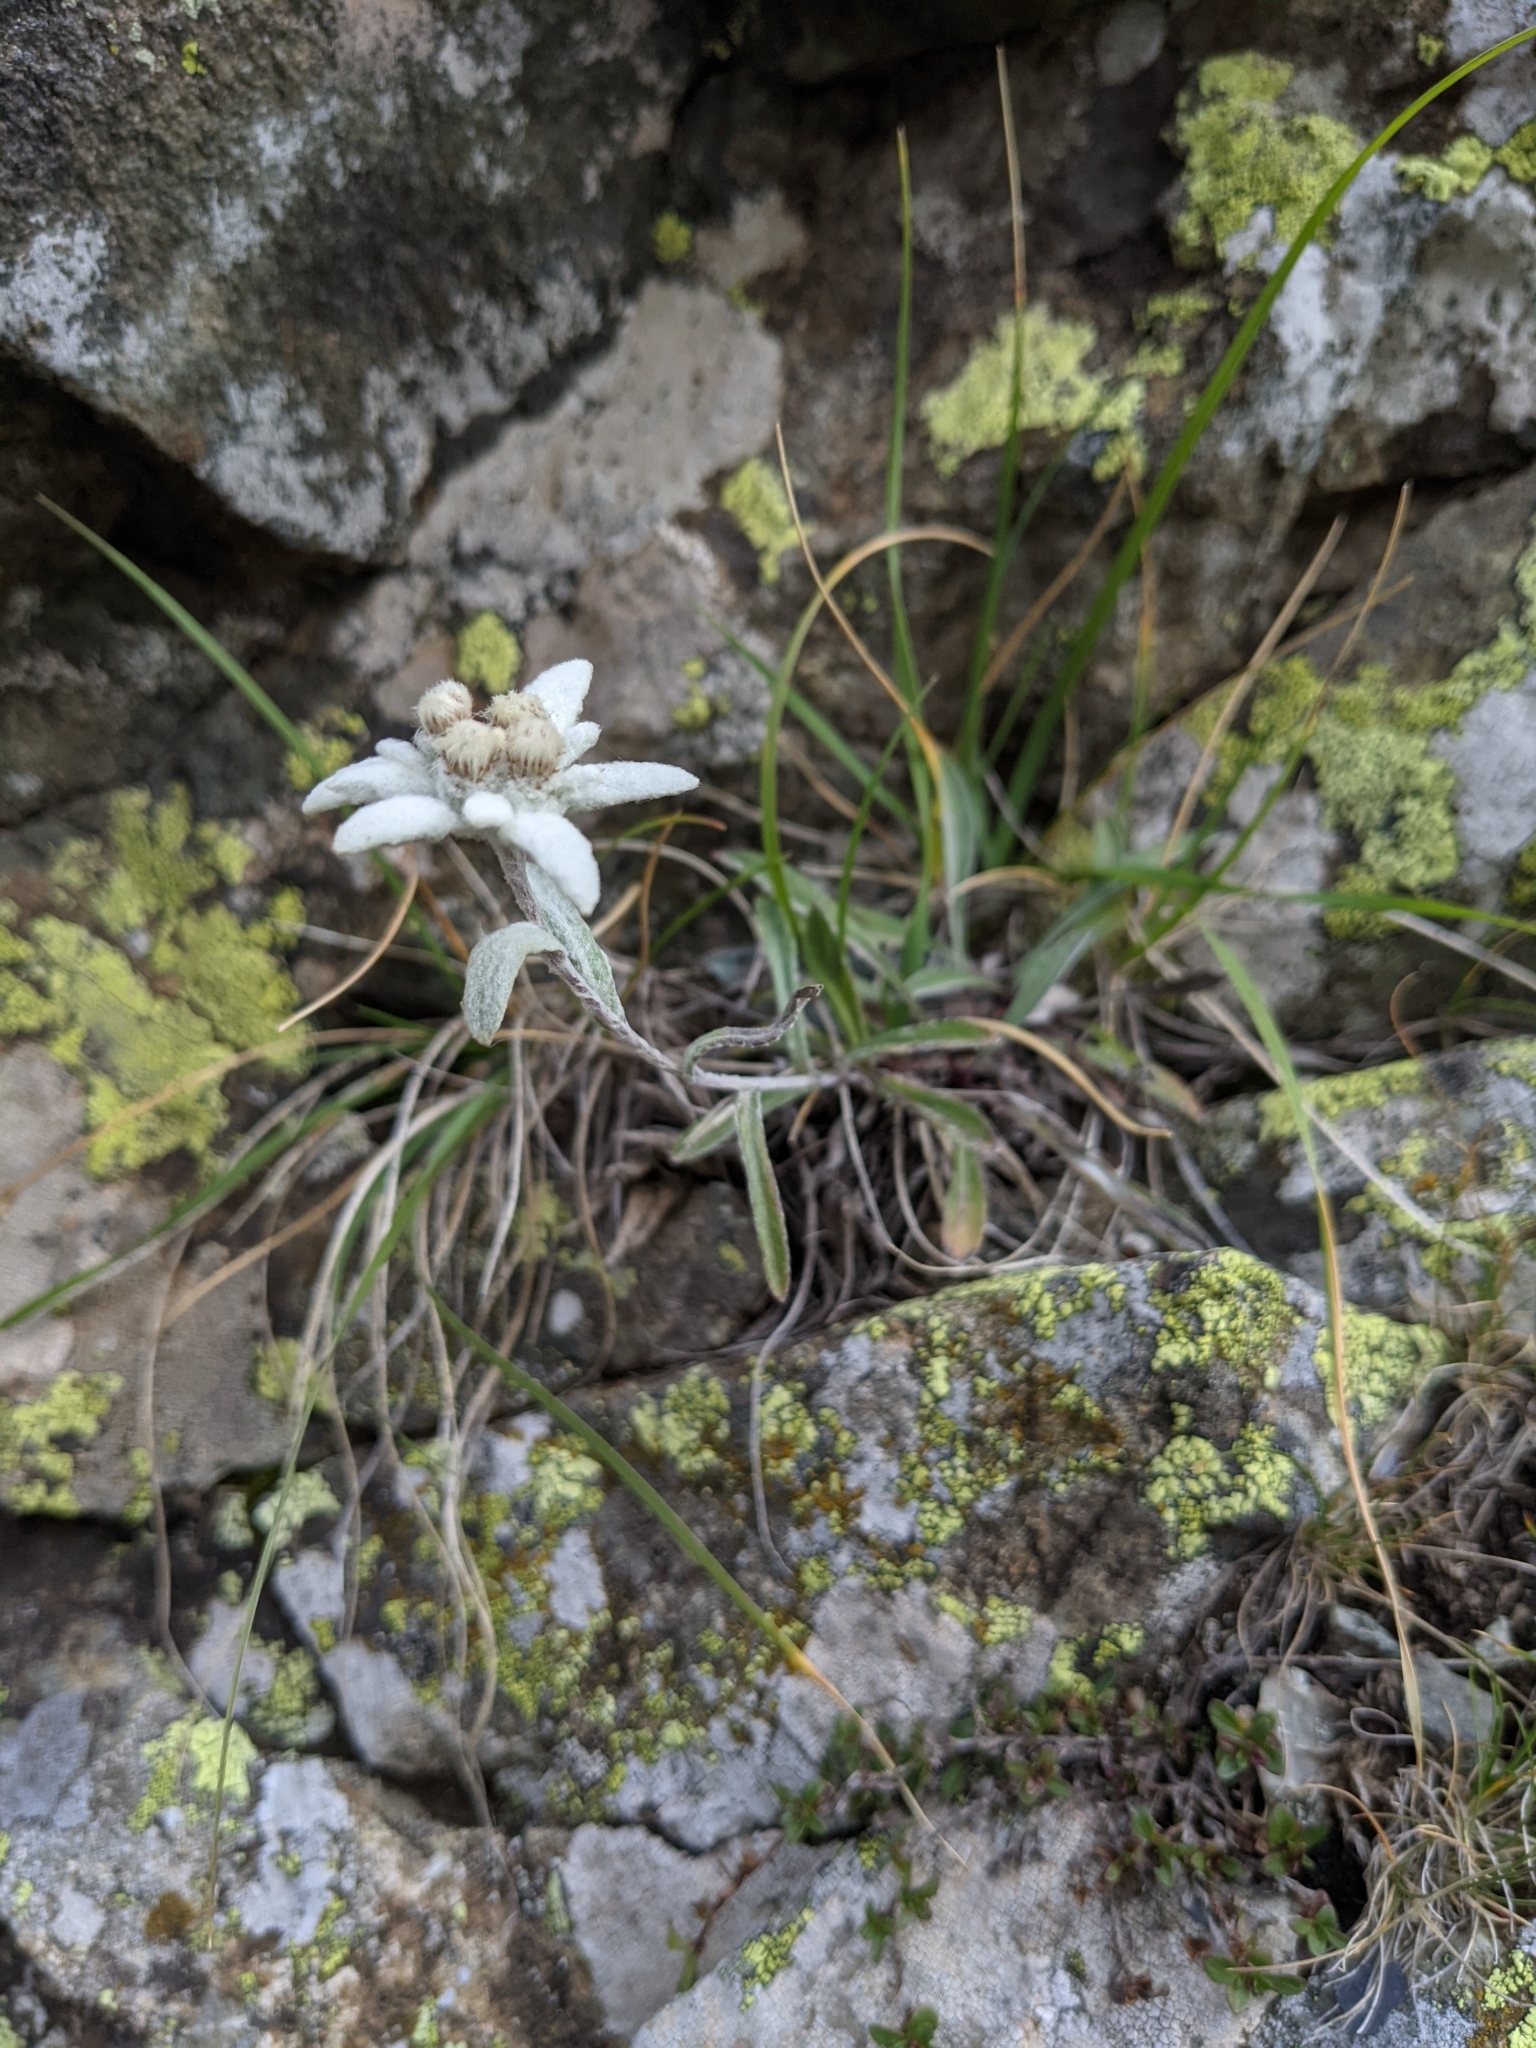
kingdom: Plantae
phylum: Tracheophyta
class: Magnoliopsida
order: Asterales
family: Asteraceae
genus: Leontopodium
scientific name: Leontopodium nivale
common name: Edelweiss
